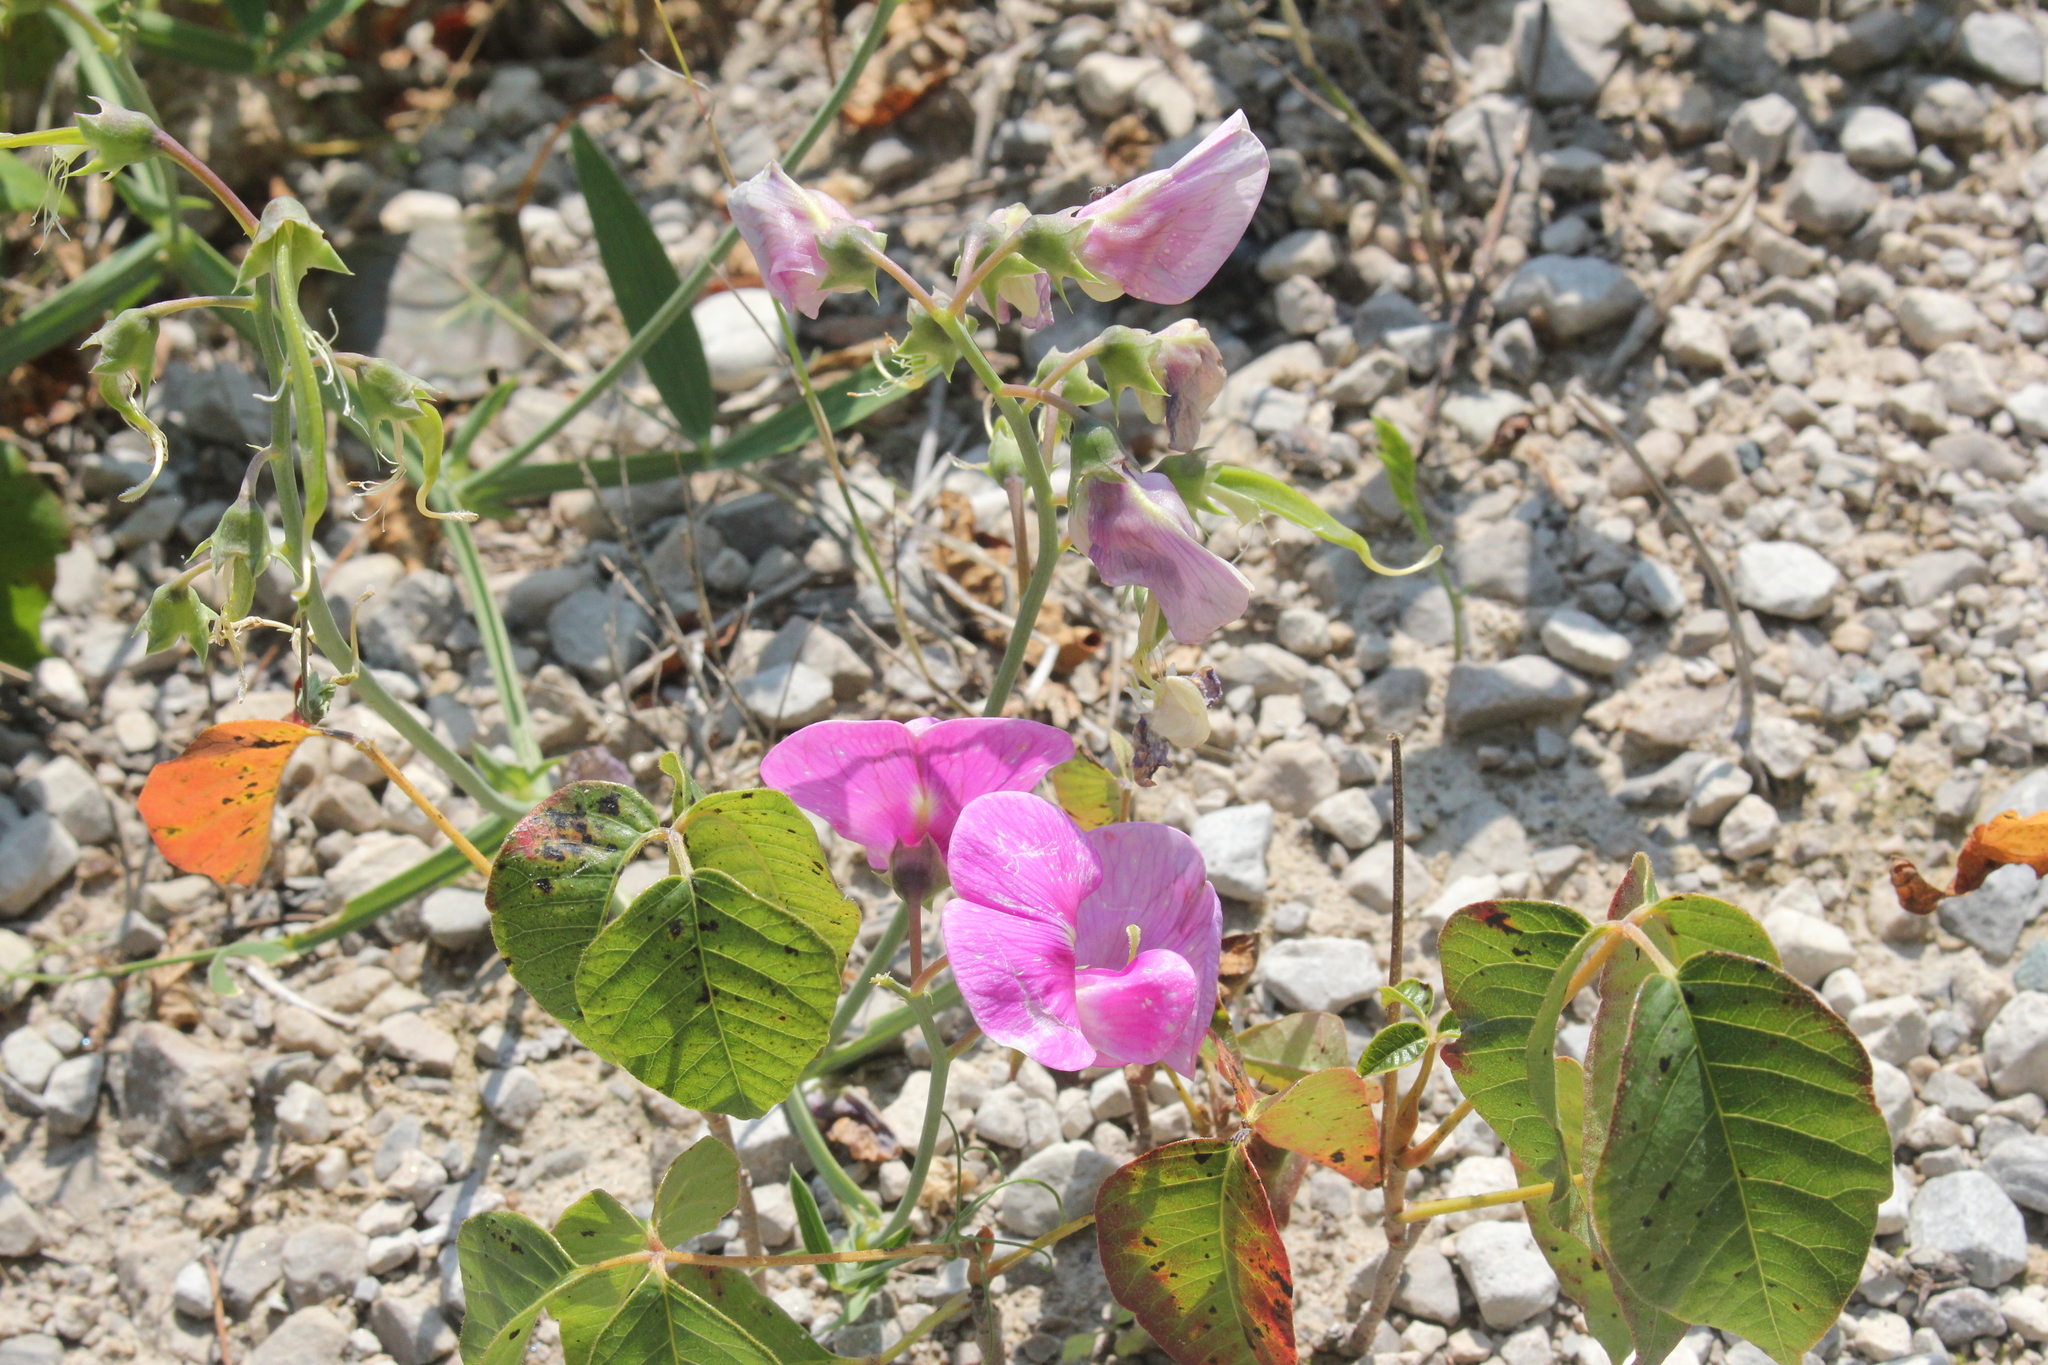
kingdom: Plantae
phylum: Tracheophyta
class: Magnoliopsida
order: Fabales
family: Fabaceae
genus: Lathyrus
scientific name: Lathyrus latifolius
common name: Perennial pea
